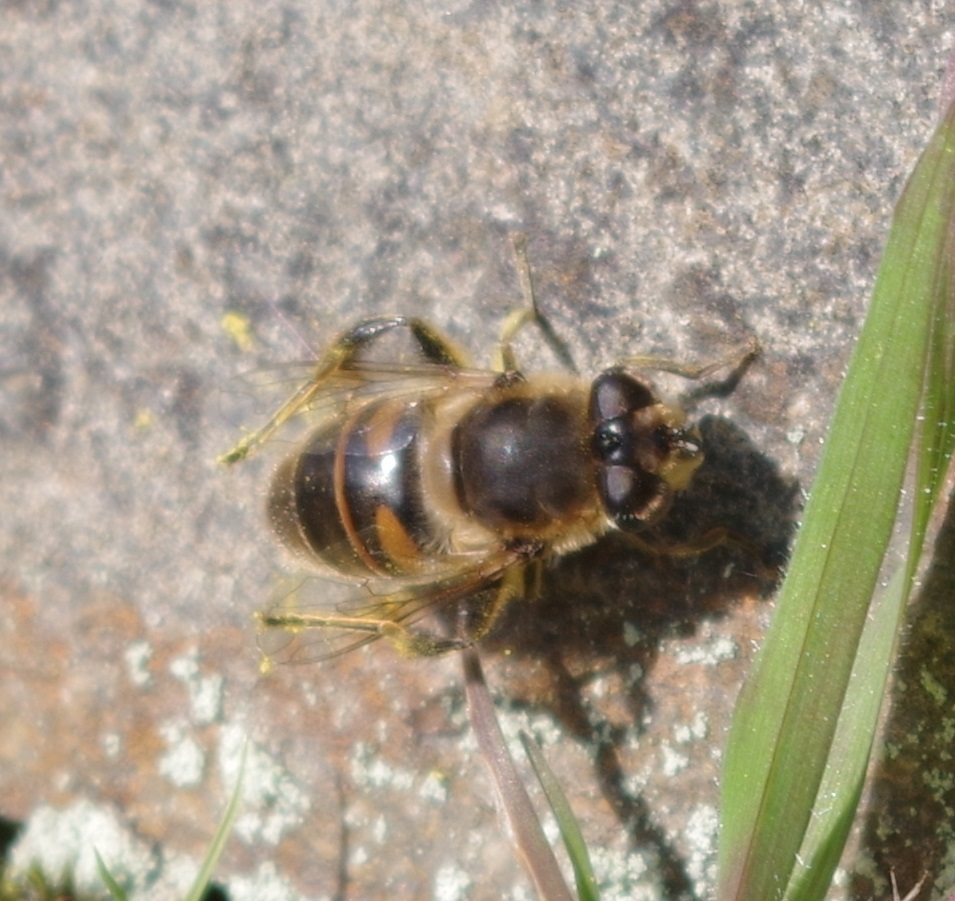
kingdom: Animalia
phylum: Arthropoda
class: Insecta
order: Diptera
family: Syrphidae
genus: Eristalis
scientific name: Eristalis tenax
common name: Drone fly
